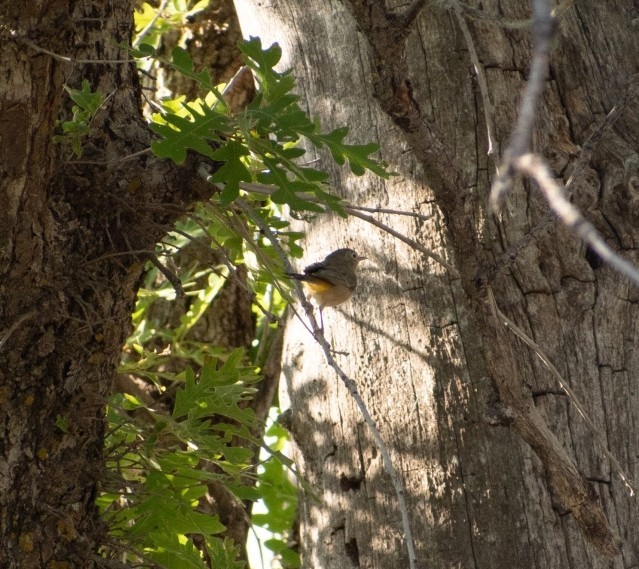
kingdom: Animalia
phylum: Chordata
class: Aves
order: Passeriformes
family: Parulidae
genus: Leiothlypis
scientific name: Leiothlypis virginiae
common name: Virginia's warbler
